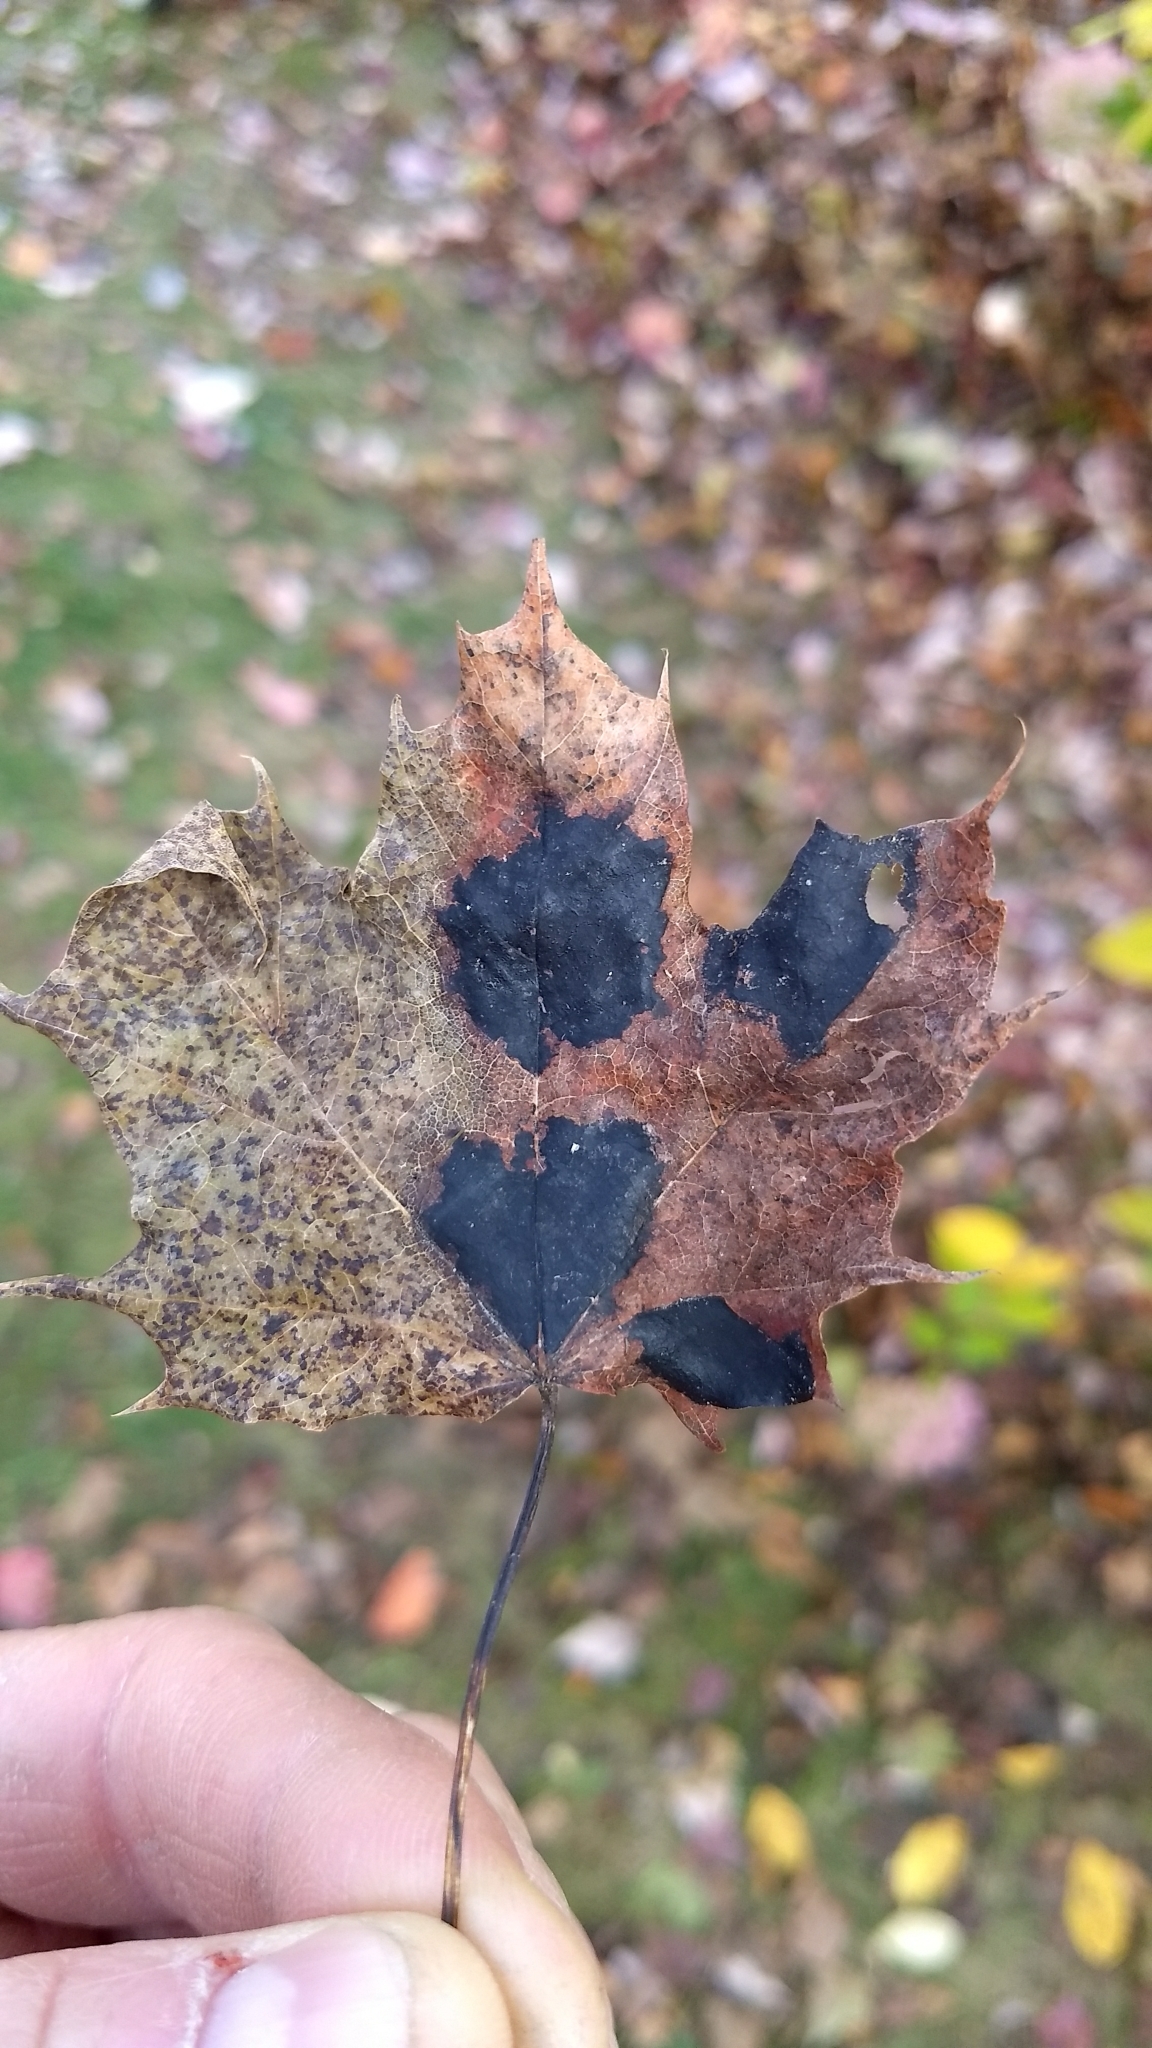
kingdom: Fungi
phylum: Ascomycota
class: Leotiomycetes
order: Rhytismatales
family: Rhytismataceae
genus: Rhytisma
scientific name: Rhytisma acerinum
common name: European tar spot
